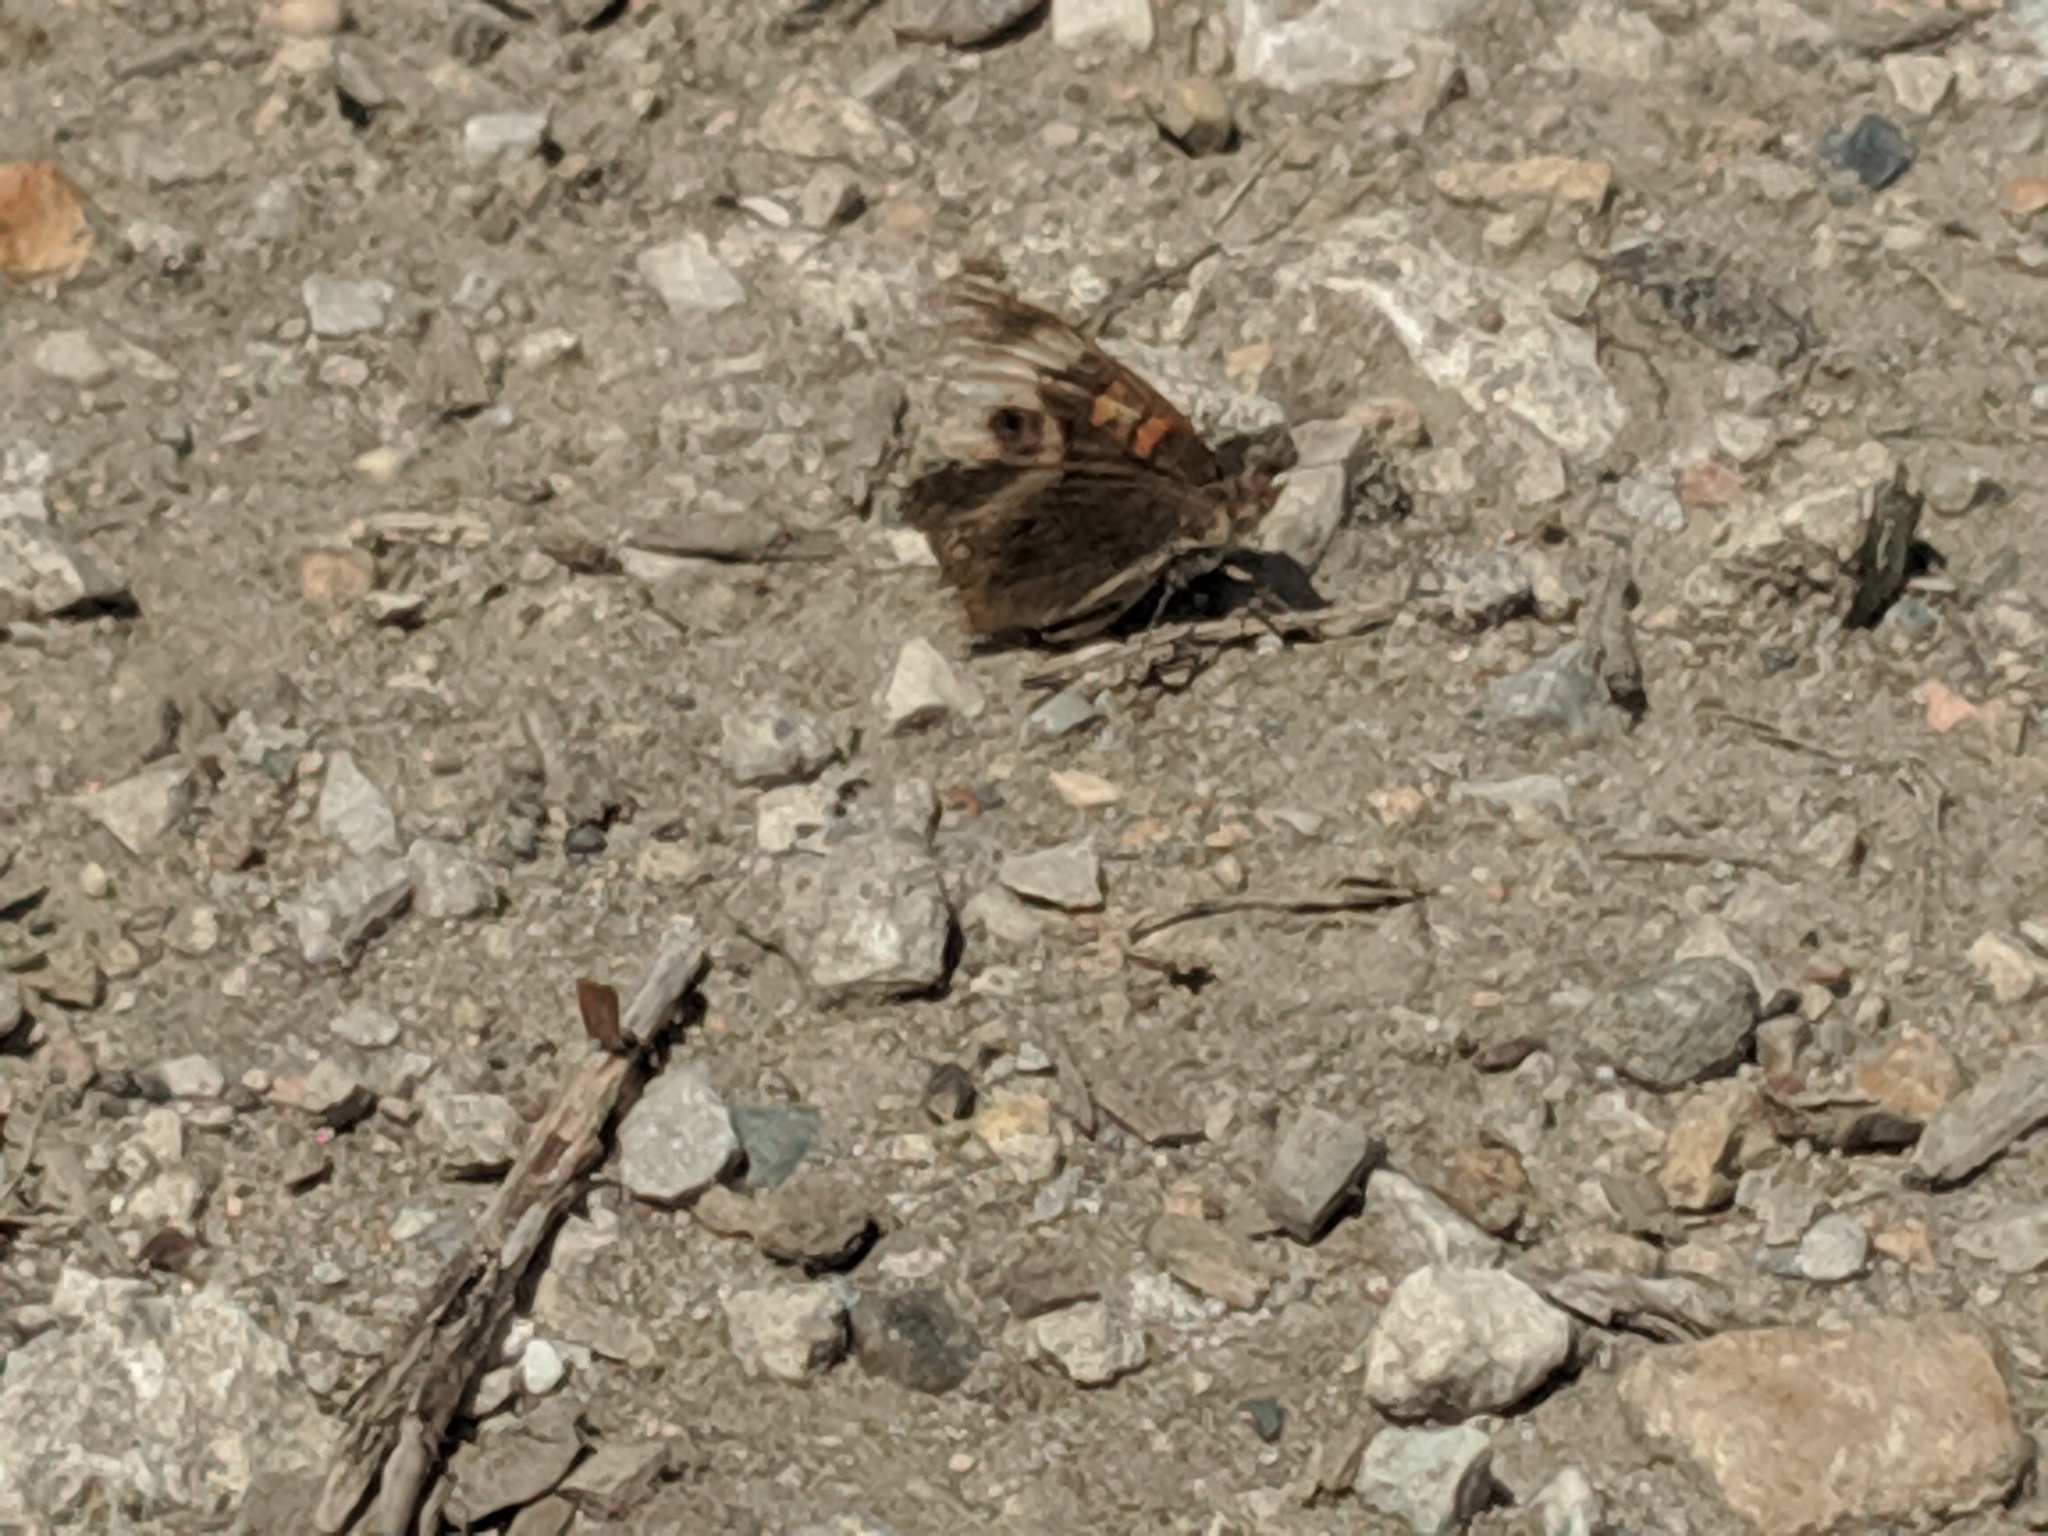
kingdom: Animalia
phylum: Arthropoda
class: Insecta
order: Lepidoptera
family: Nymphalidae
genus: Junonia
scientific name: Junonia coenia
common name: Common buckeye
